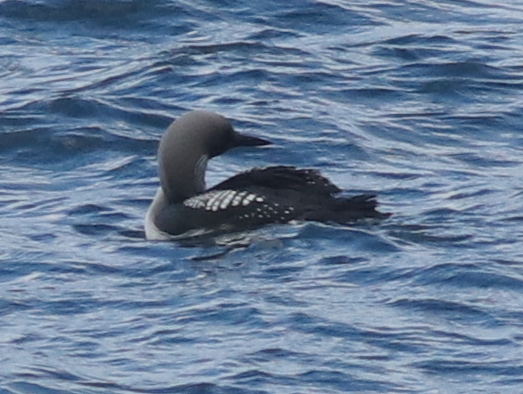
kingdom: Animalia
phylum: Chordata
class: Aves
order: Gaviiformes
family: Gaviidae
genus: Gavia
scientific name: Gavia arctica
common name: Black-throated loon
